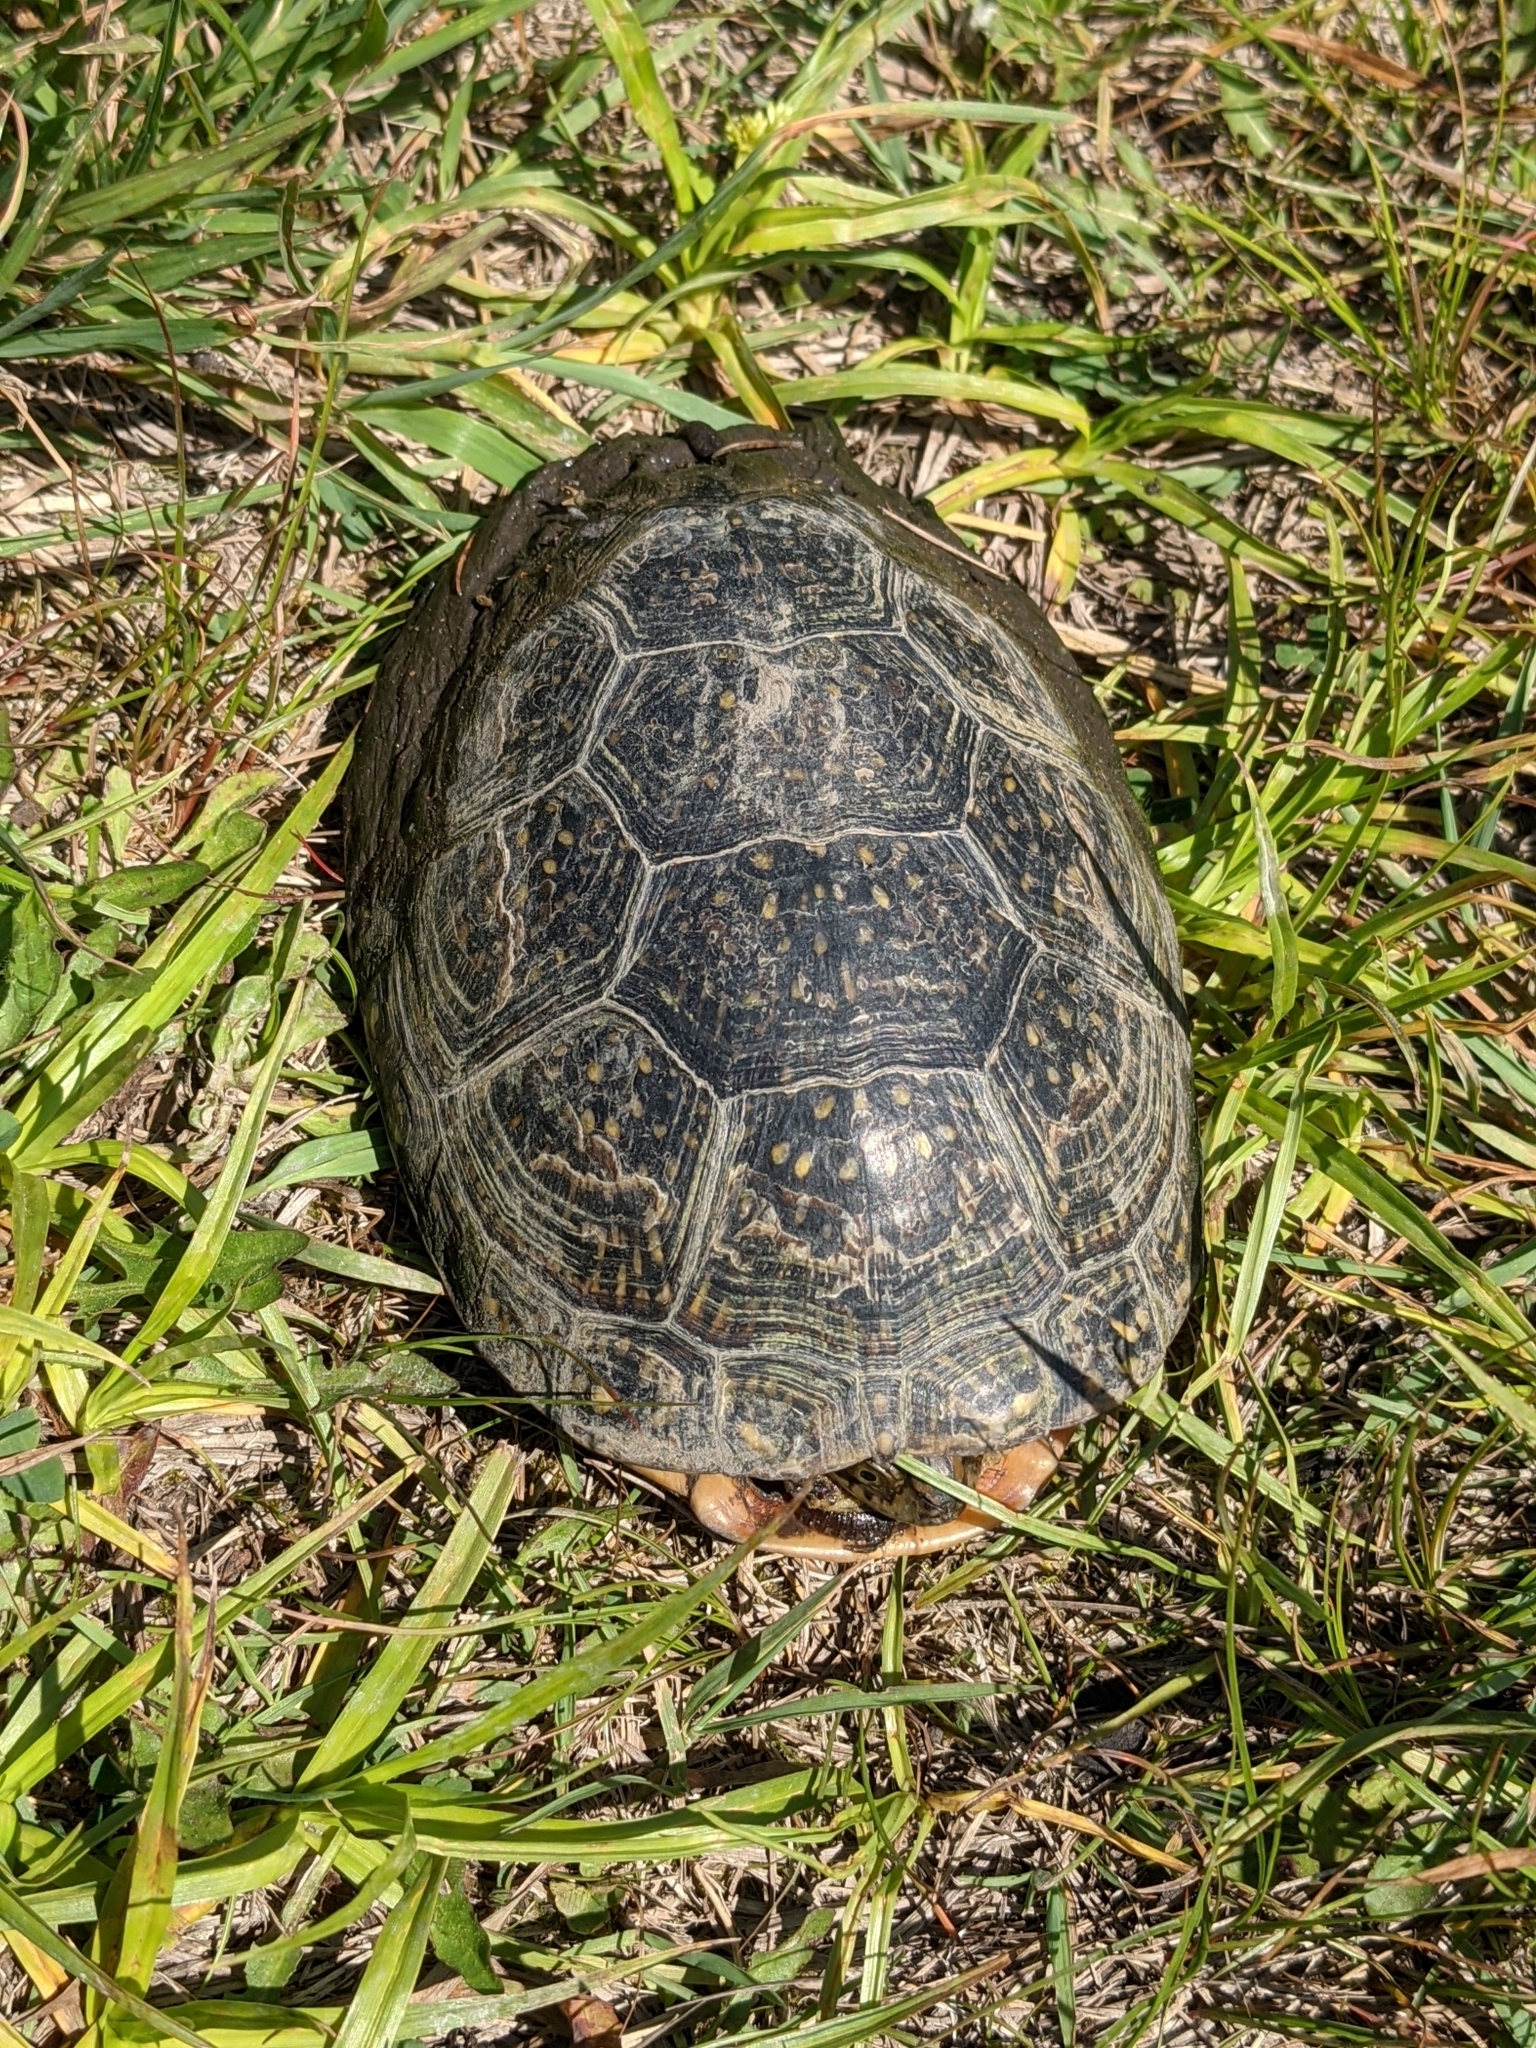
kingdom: Animalia
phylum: Chordata
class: Testudines
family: Emydidae
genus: Emys
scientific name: Emys blandingii
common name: Blanding's turtle
